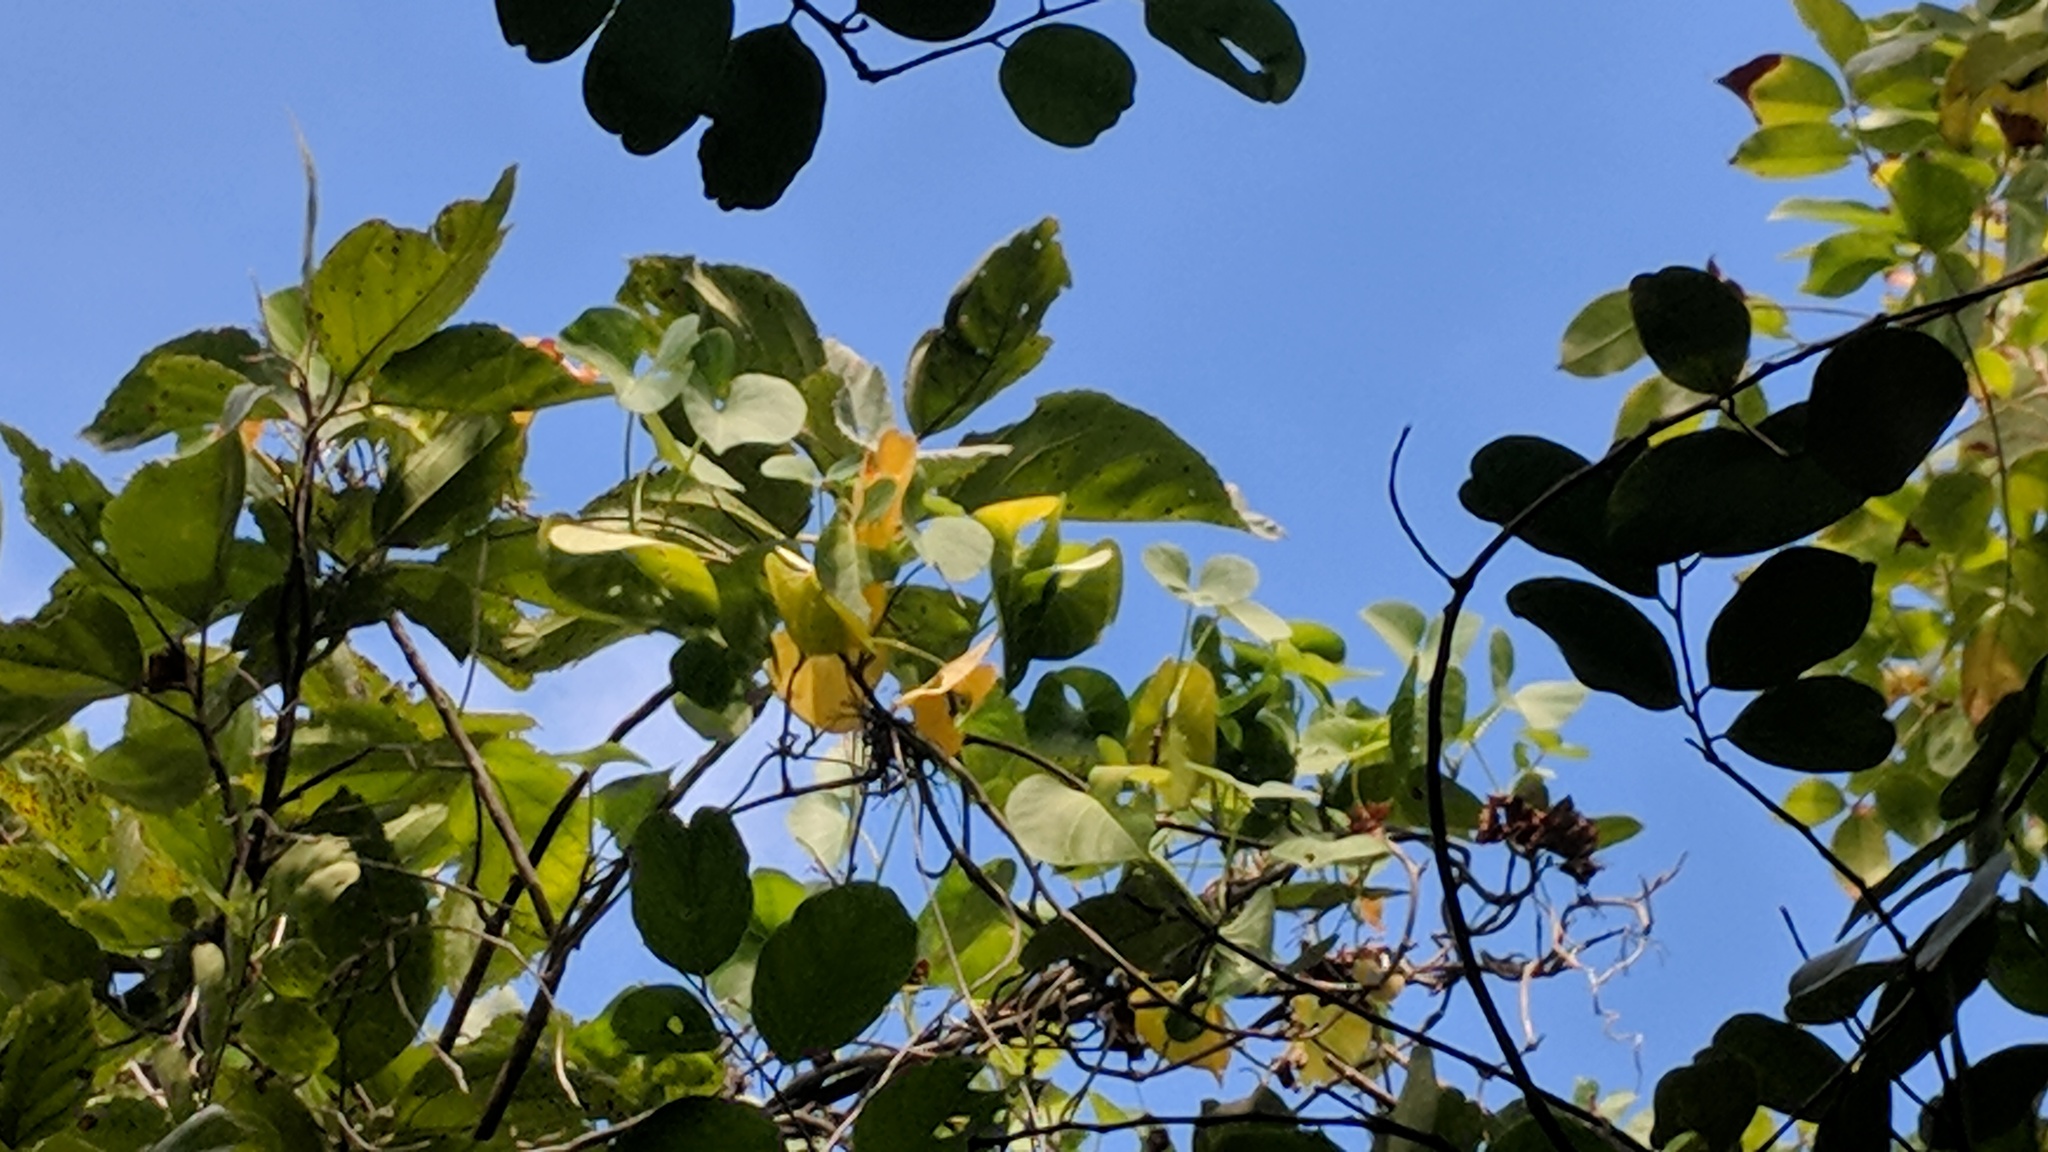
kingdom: Plantae
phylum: Tracheophyta
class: Magnoliopsida
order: Solanales
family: Convolvulaceae
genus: Ipomoea
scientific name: Ipomoea violacea
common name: Beach moonflower
